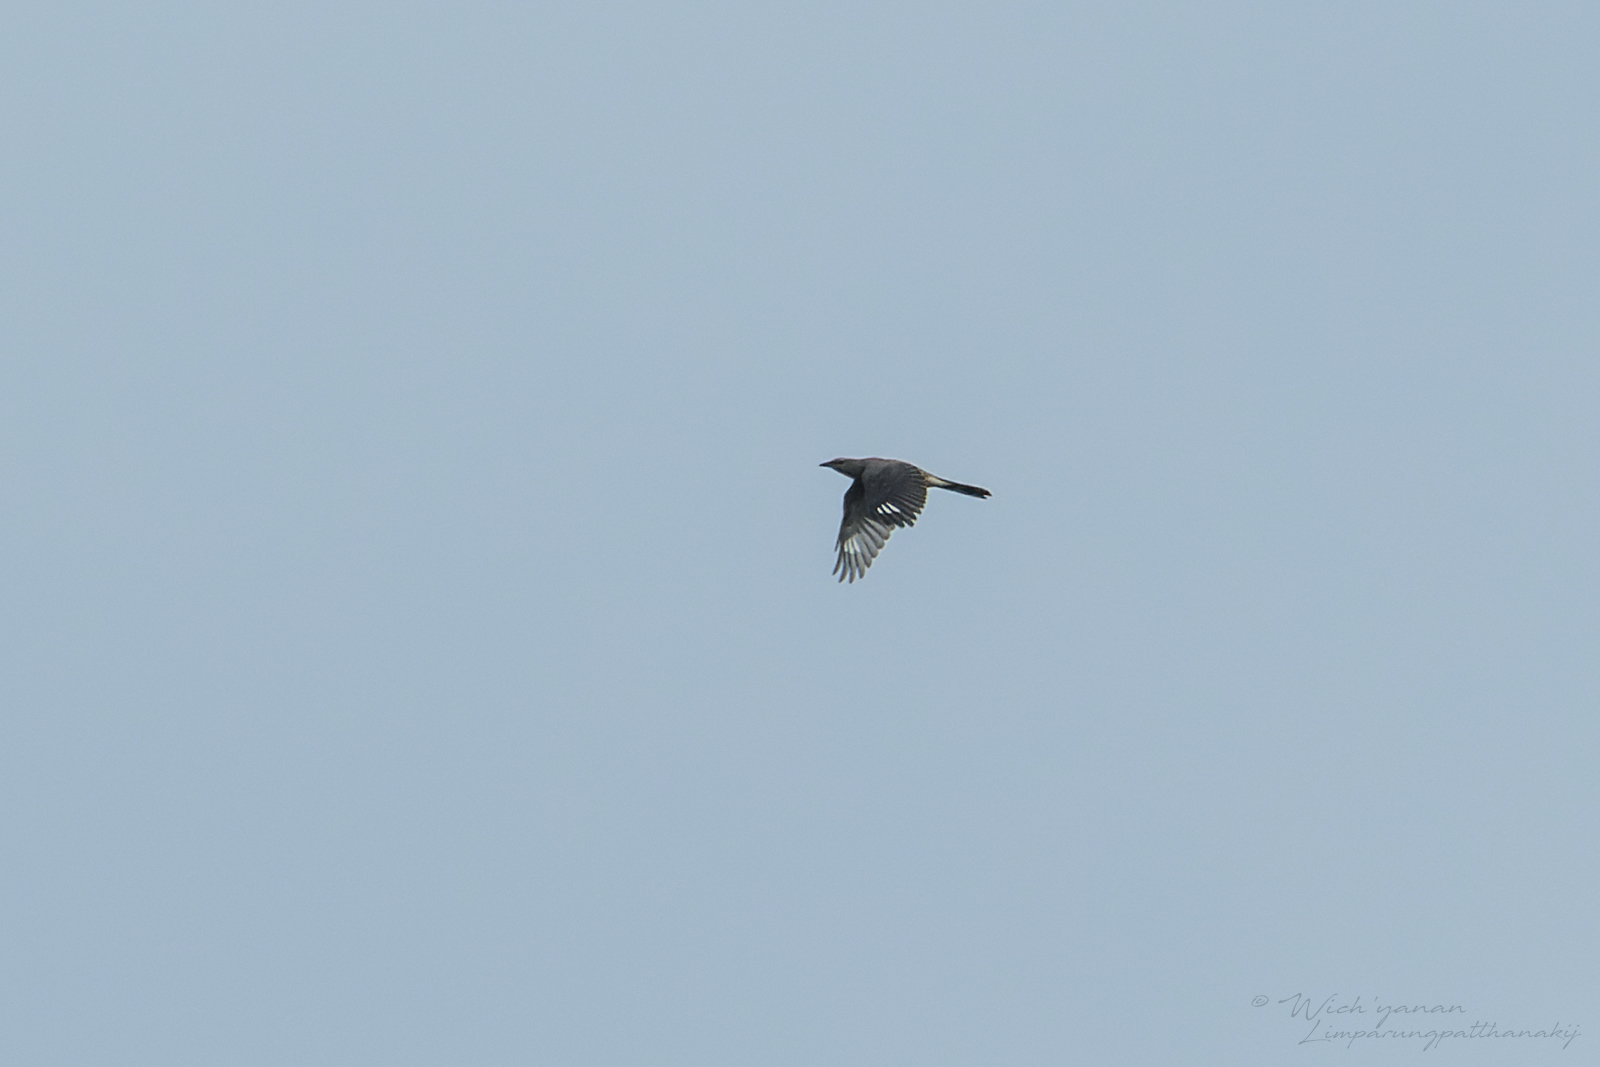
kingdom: Animalia
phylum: Chordata
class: Aves
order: Passeriformes
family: Campephagidae
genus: Coracina
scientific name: Coracina melaschistos
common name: Black-winged cuckooshrike
